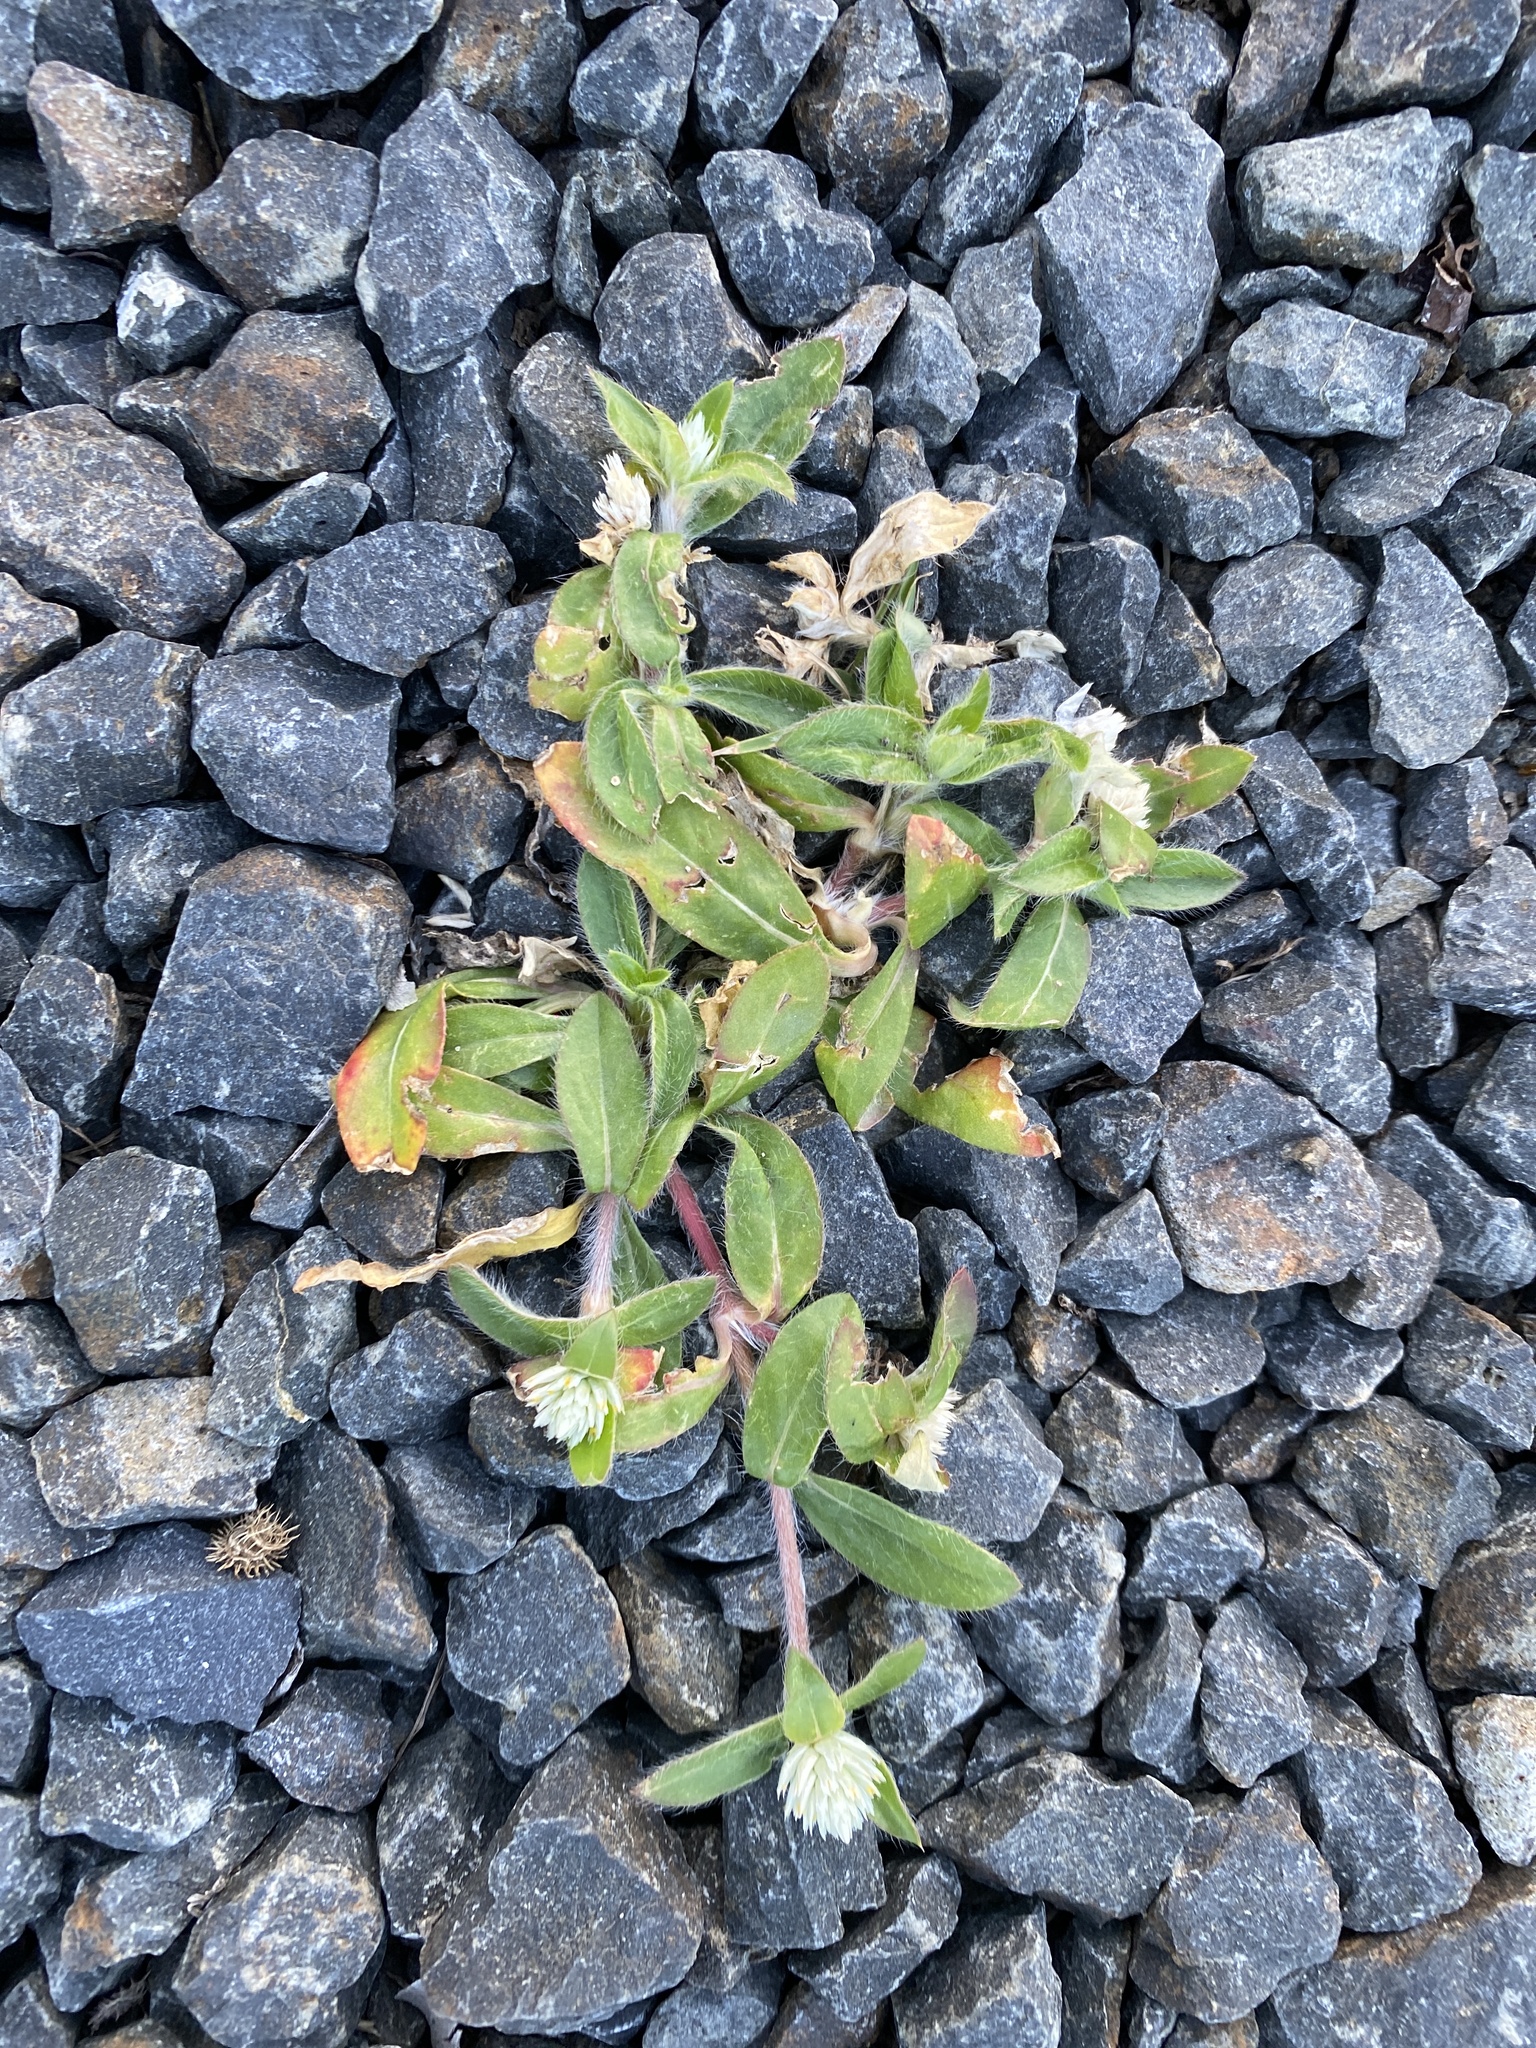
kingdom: Plantae
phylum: Tracheophyta
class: Magnoliopsida
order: Caryophyllales
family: Amaranthaceae
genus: Gomphrena
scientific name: Gomphrena celosioides
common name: Gomphrena-weed
